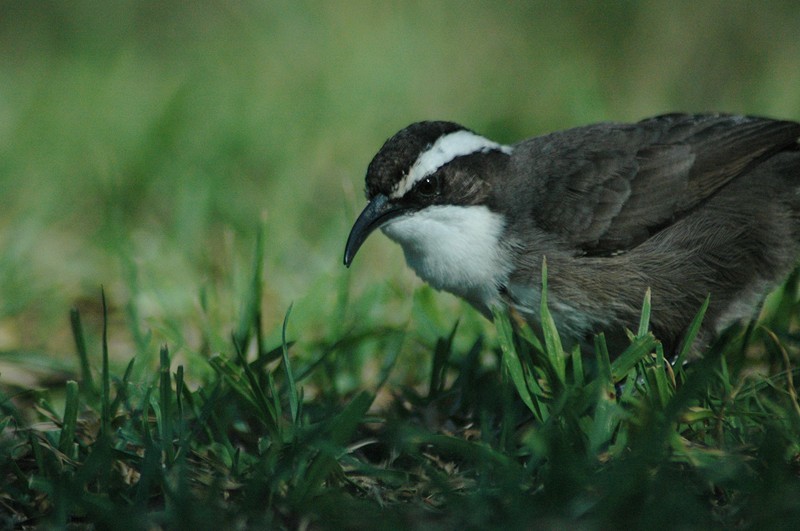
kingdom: Animalia
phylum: Chordata
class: Aves
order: Passeriformes
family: Pomatostomidae
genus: Pomatostomus
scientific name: Pomatostomus superciliosus
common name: White-browed babbler
